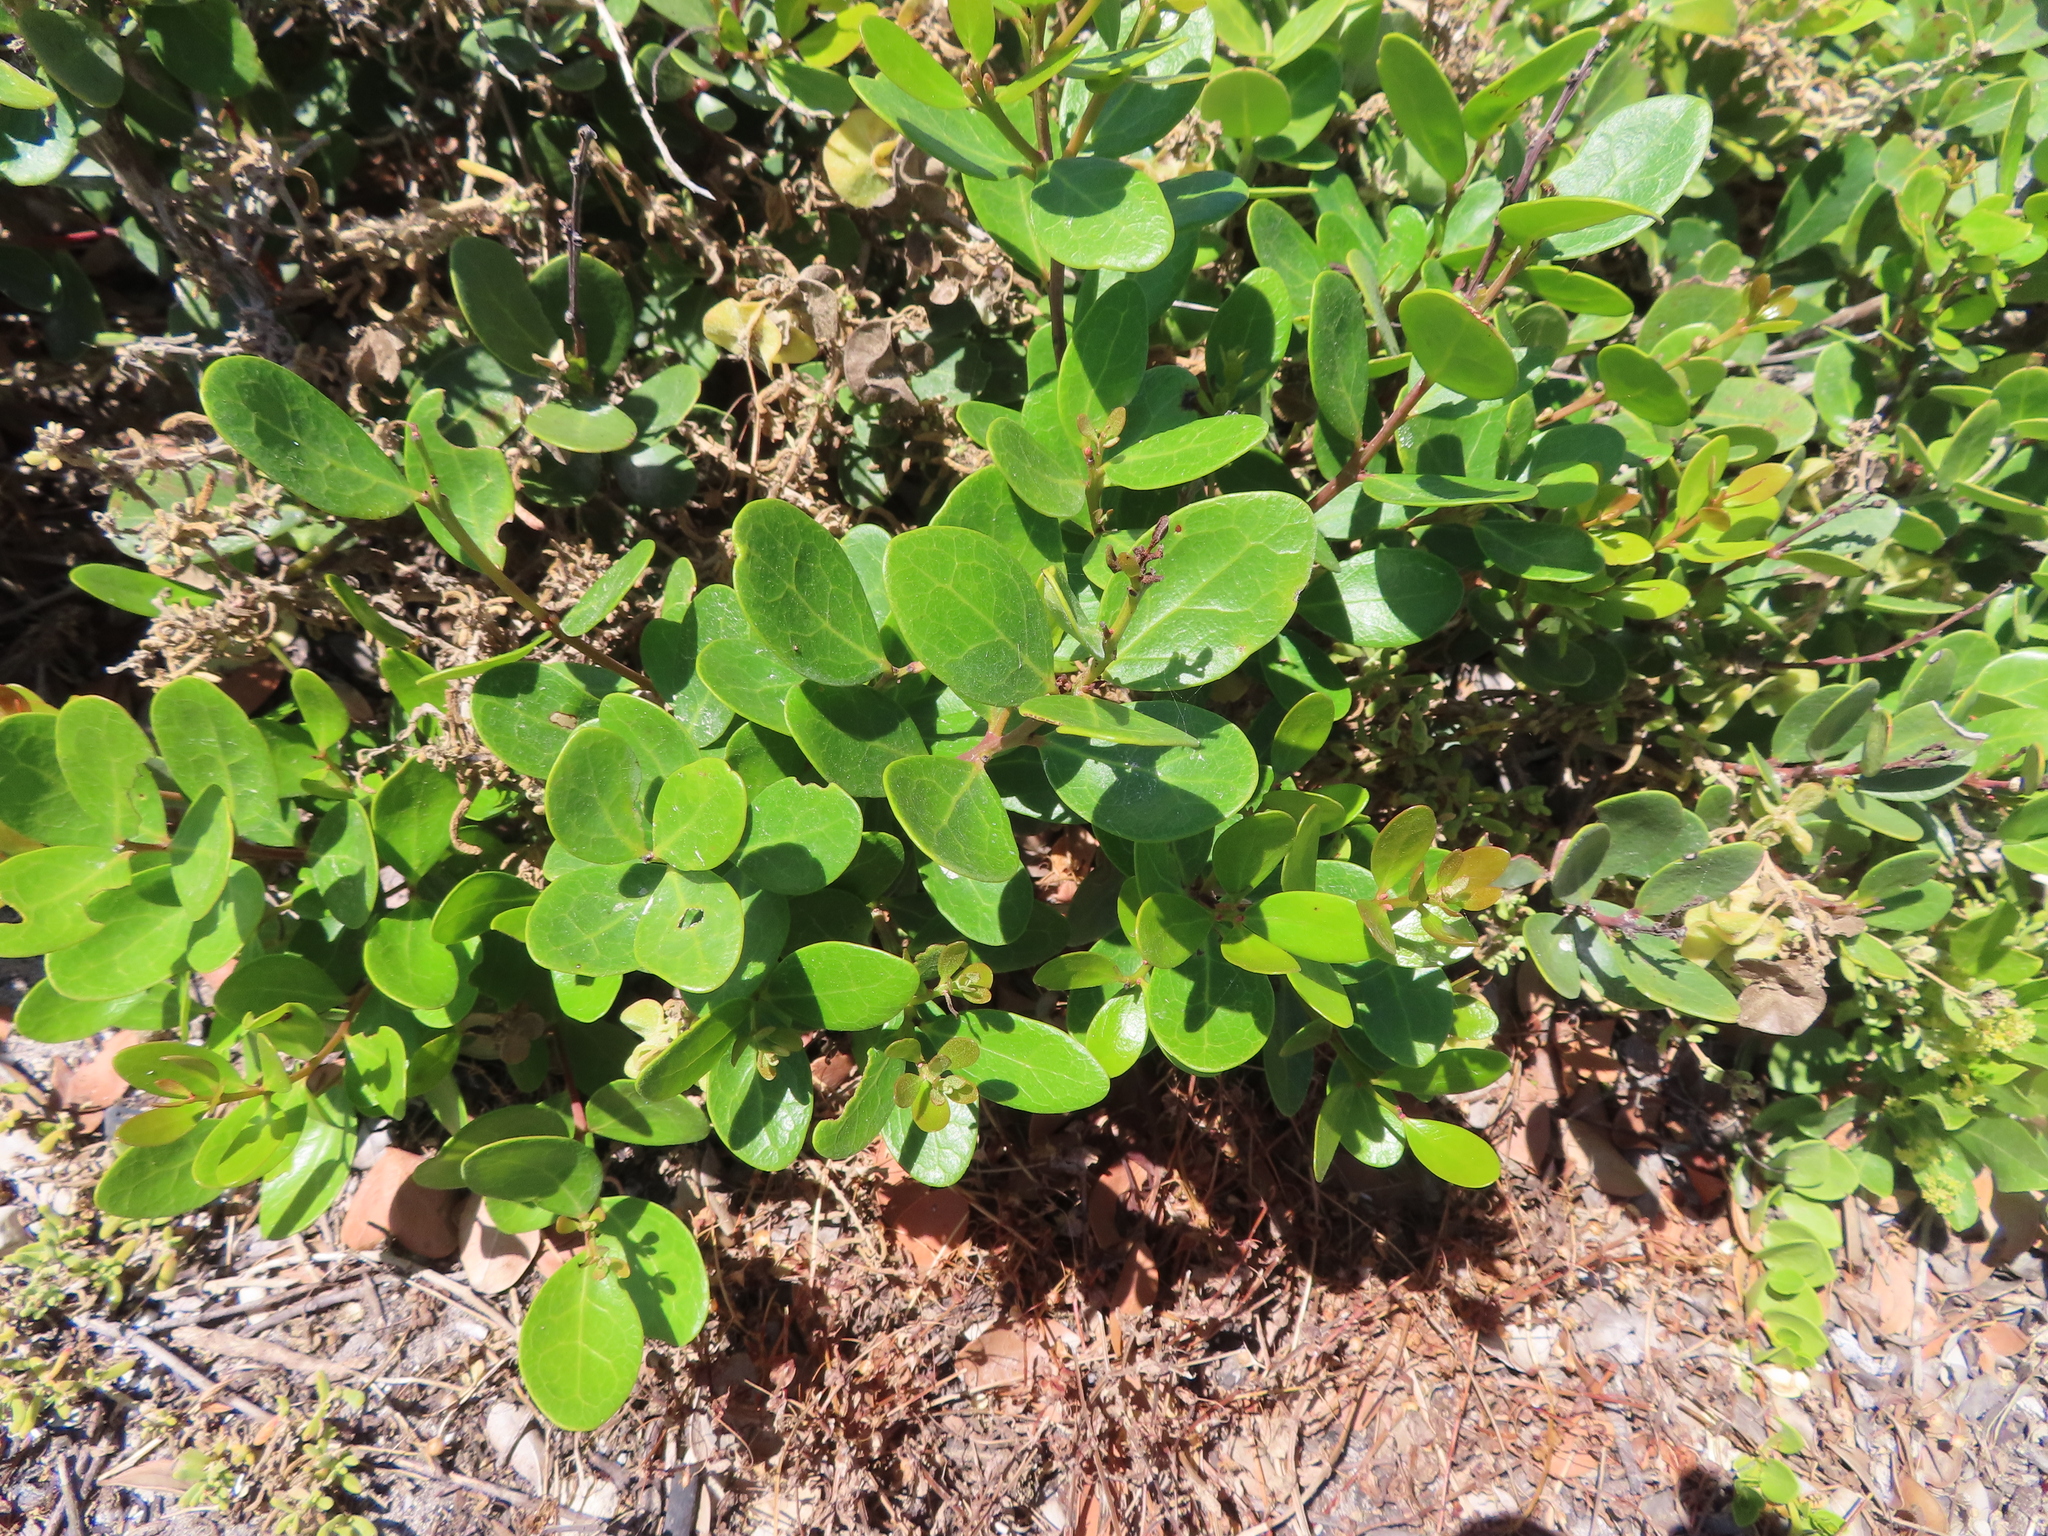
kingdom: Plantae
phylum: Tracheophyta
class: Magnoliopsida
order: Ericales
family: Ebenaceae
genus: Euclea
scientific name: Euclea racemosa
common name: Dune guarri
